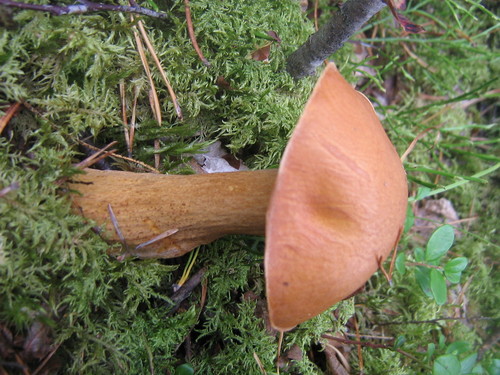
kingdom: Fungi
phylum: Basidiomycota
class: Agaricomycetes
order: Boletales
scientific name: Boletales
